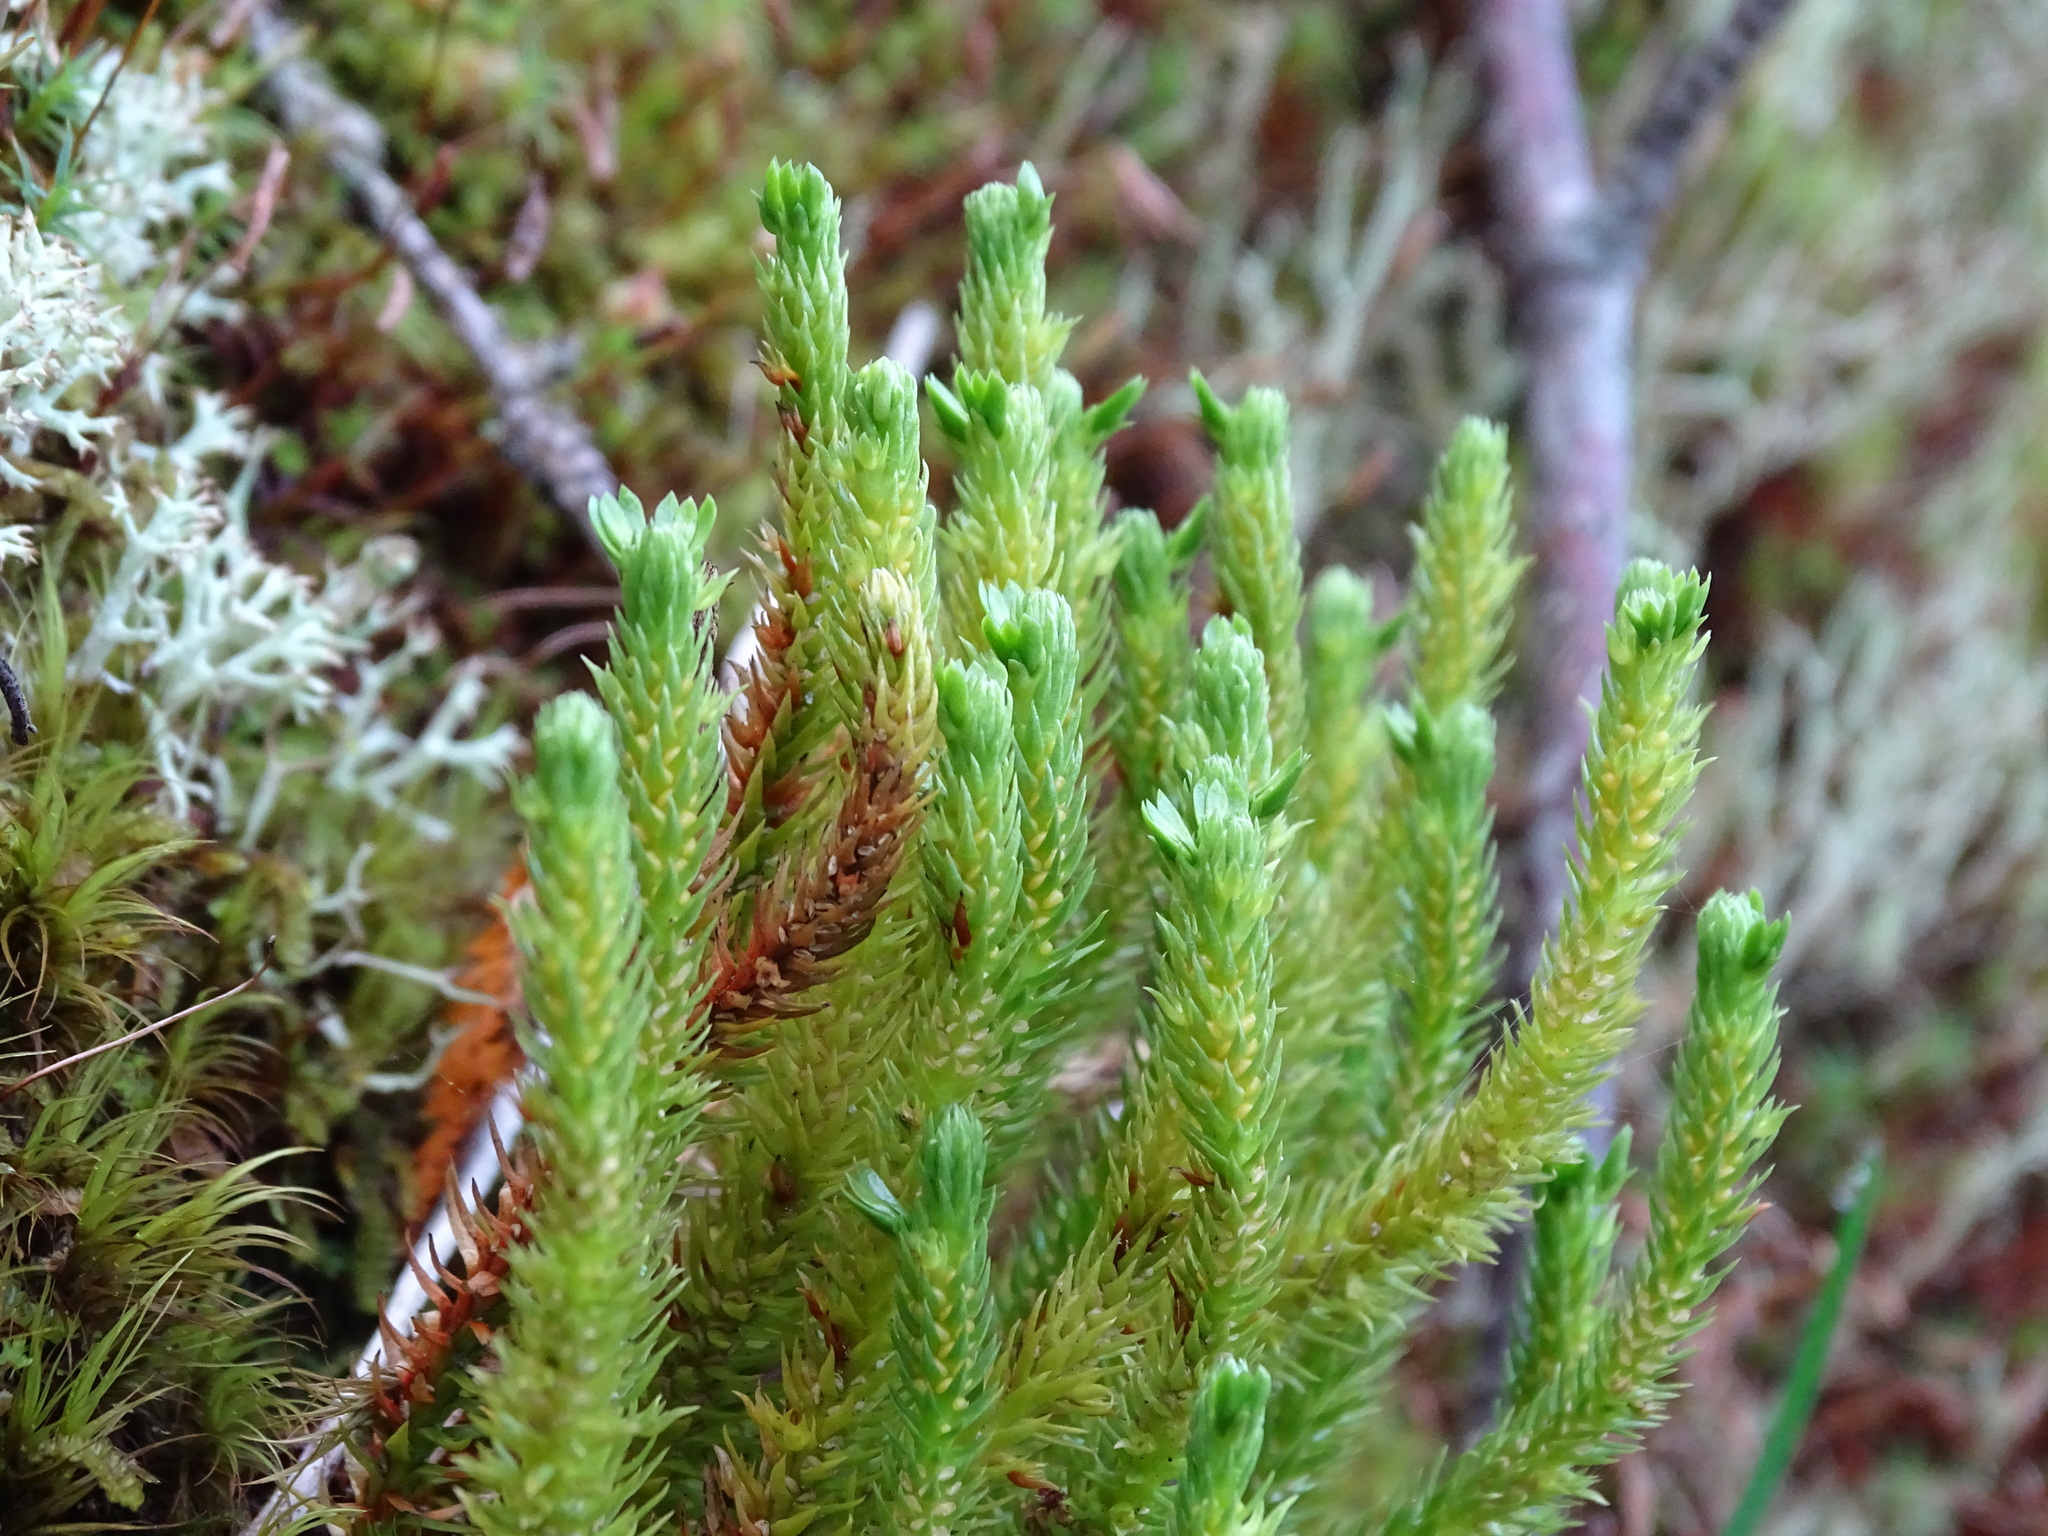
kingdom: Plantae
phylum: Tracheophyta
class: Lycopodiopsida
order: Lycopodiales
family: Lycopodiaceae
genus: Huperzia
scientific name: Huperzia selago
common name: Northern firmoss
